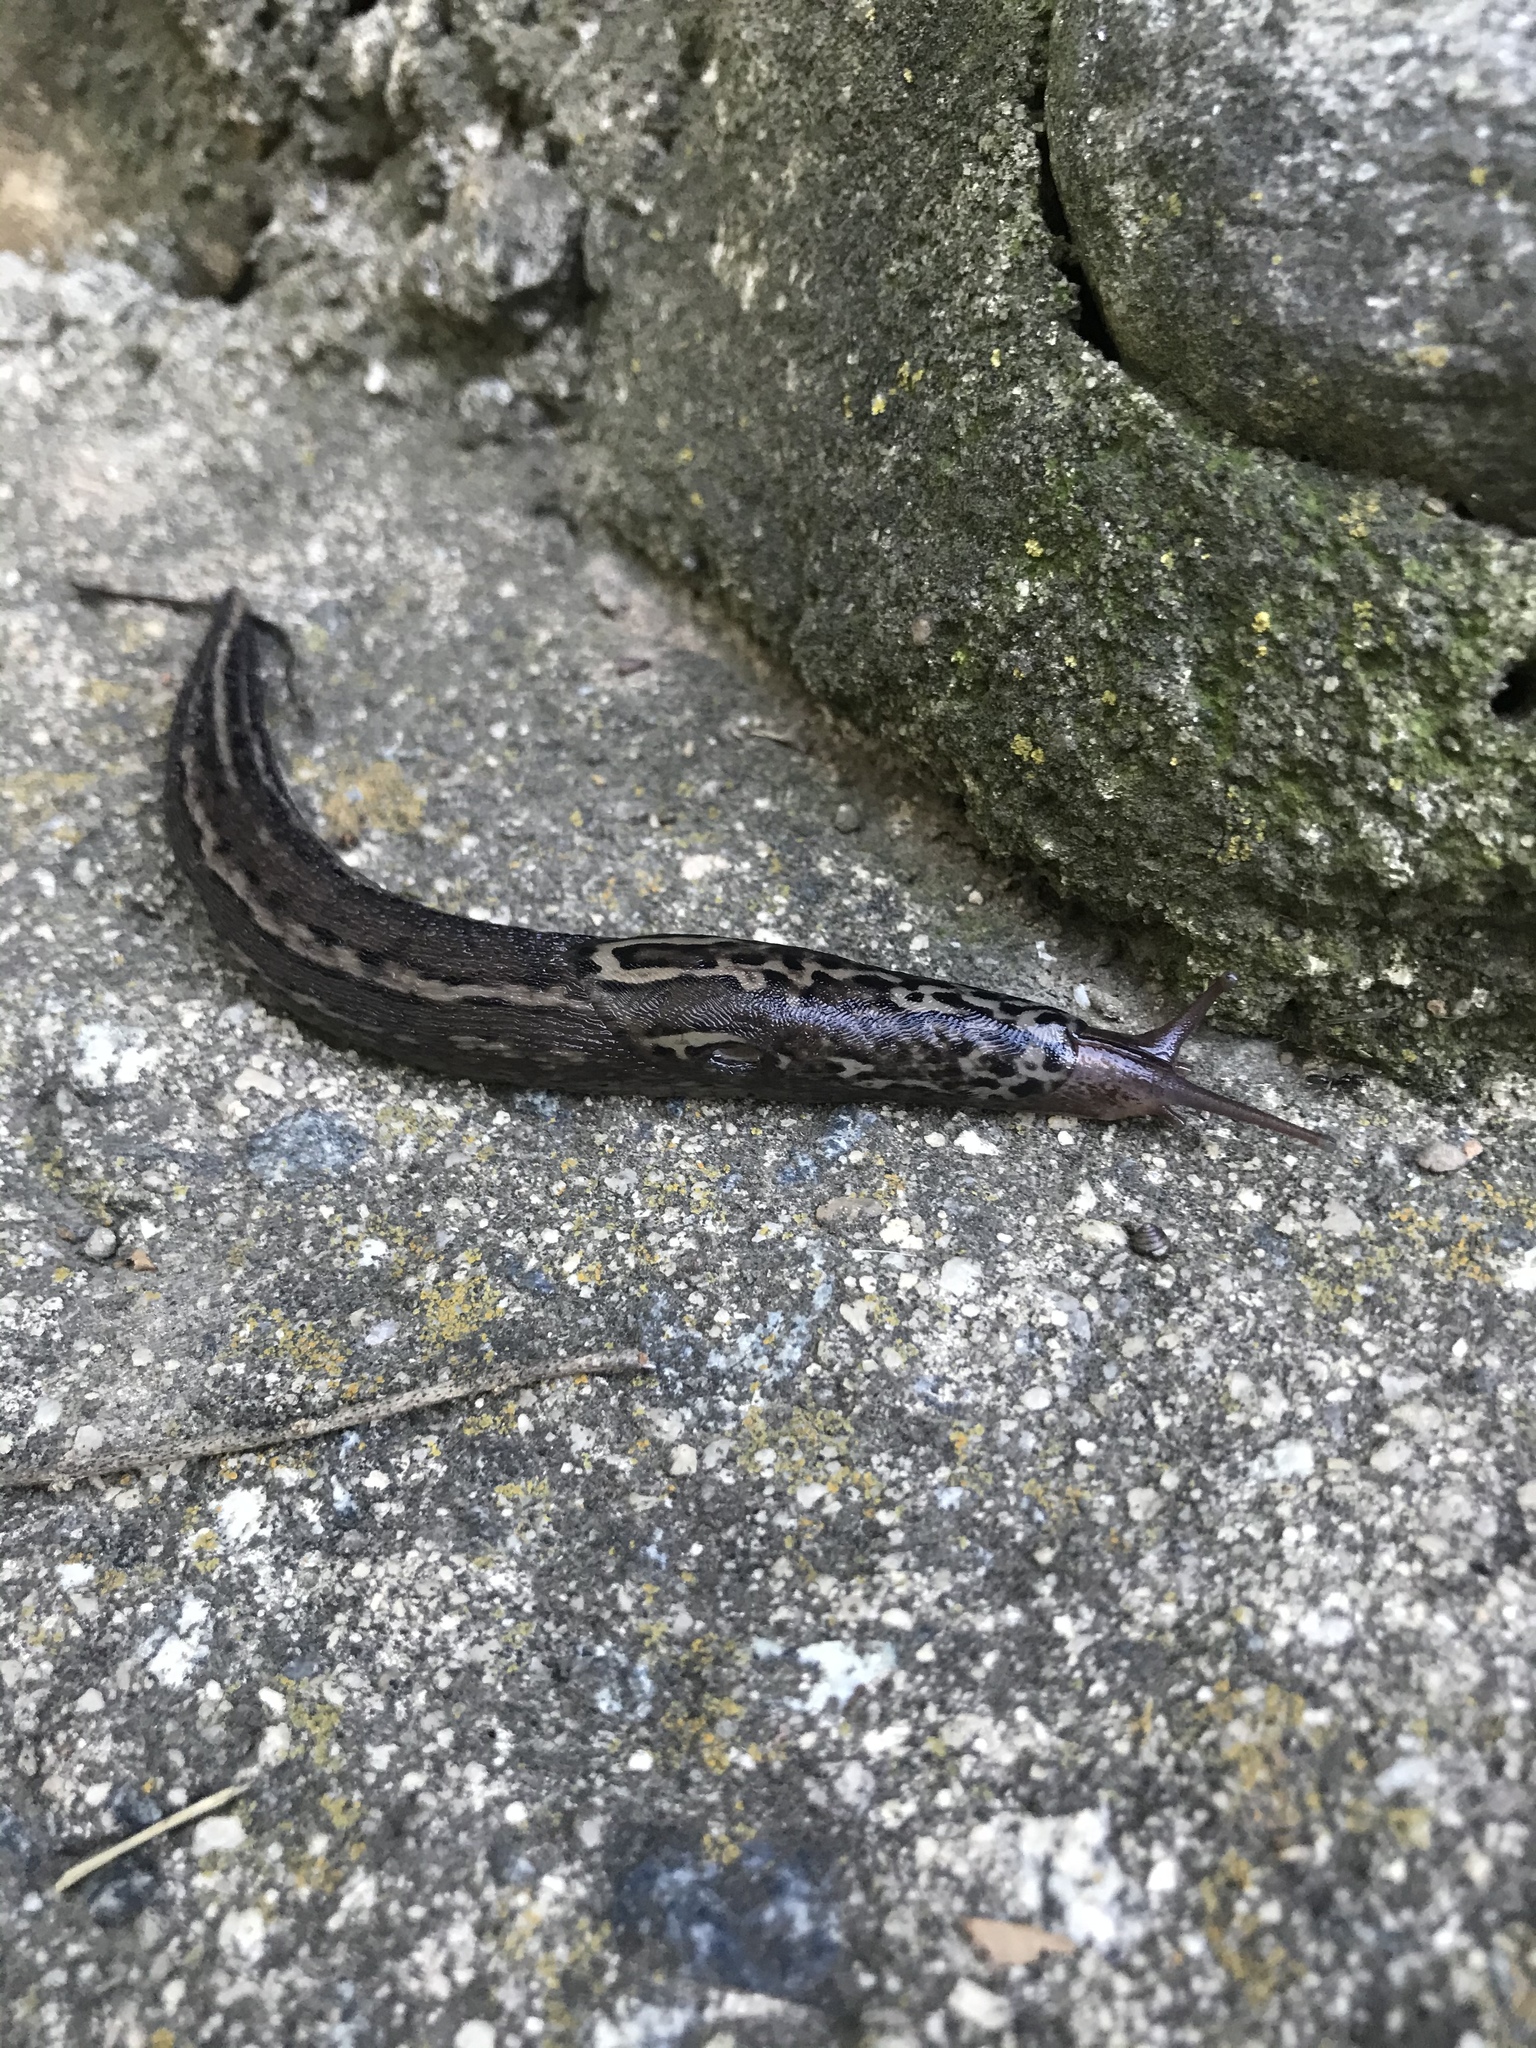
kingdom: Animalia
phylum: Mollusca
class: Gastropoda
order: Stylommatophora
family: Limacidae
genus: Limax
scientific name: Limax maximus
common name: Great grey slug
